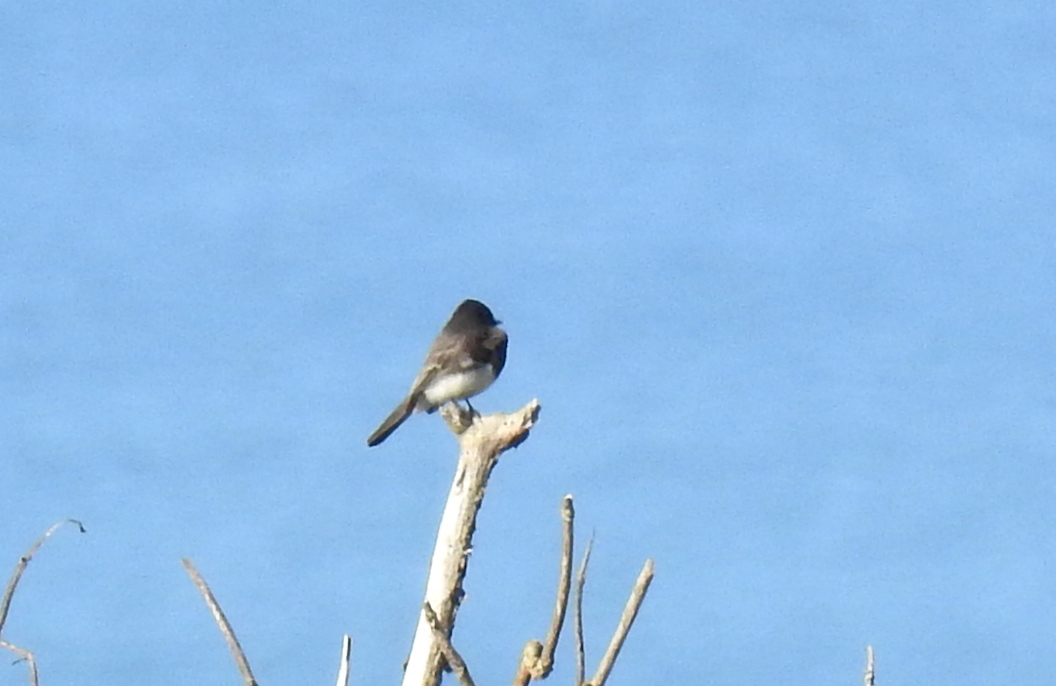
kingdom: Animalia
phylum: Chordata
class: Aves
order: Passeriformes
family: Tyrannidae
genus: Sayornis
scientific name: Sayornis nigricans
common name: Black phoebe
